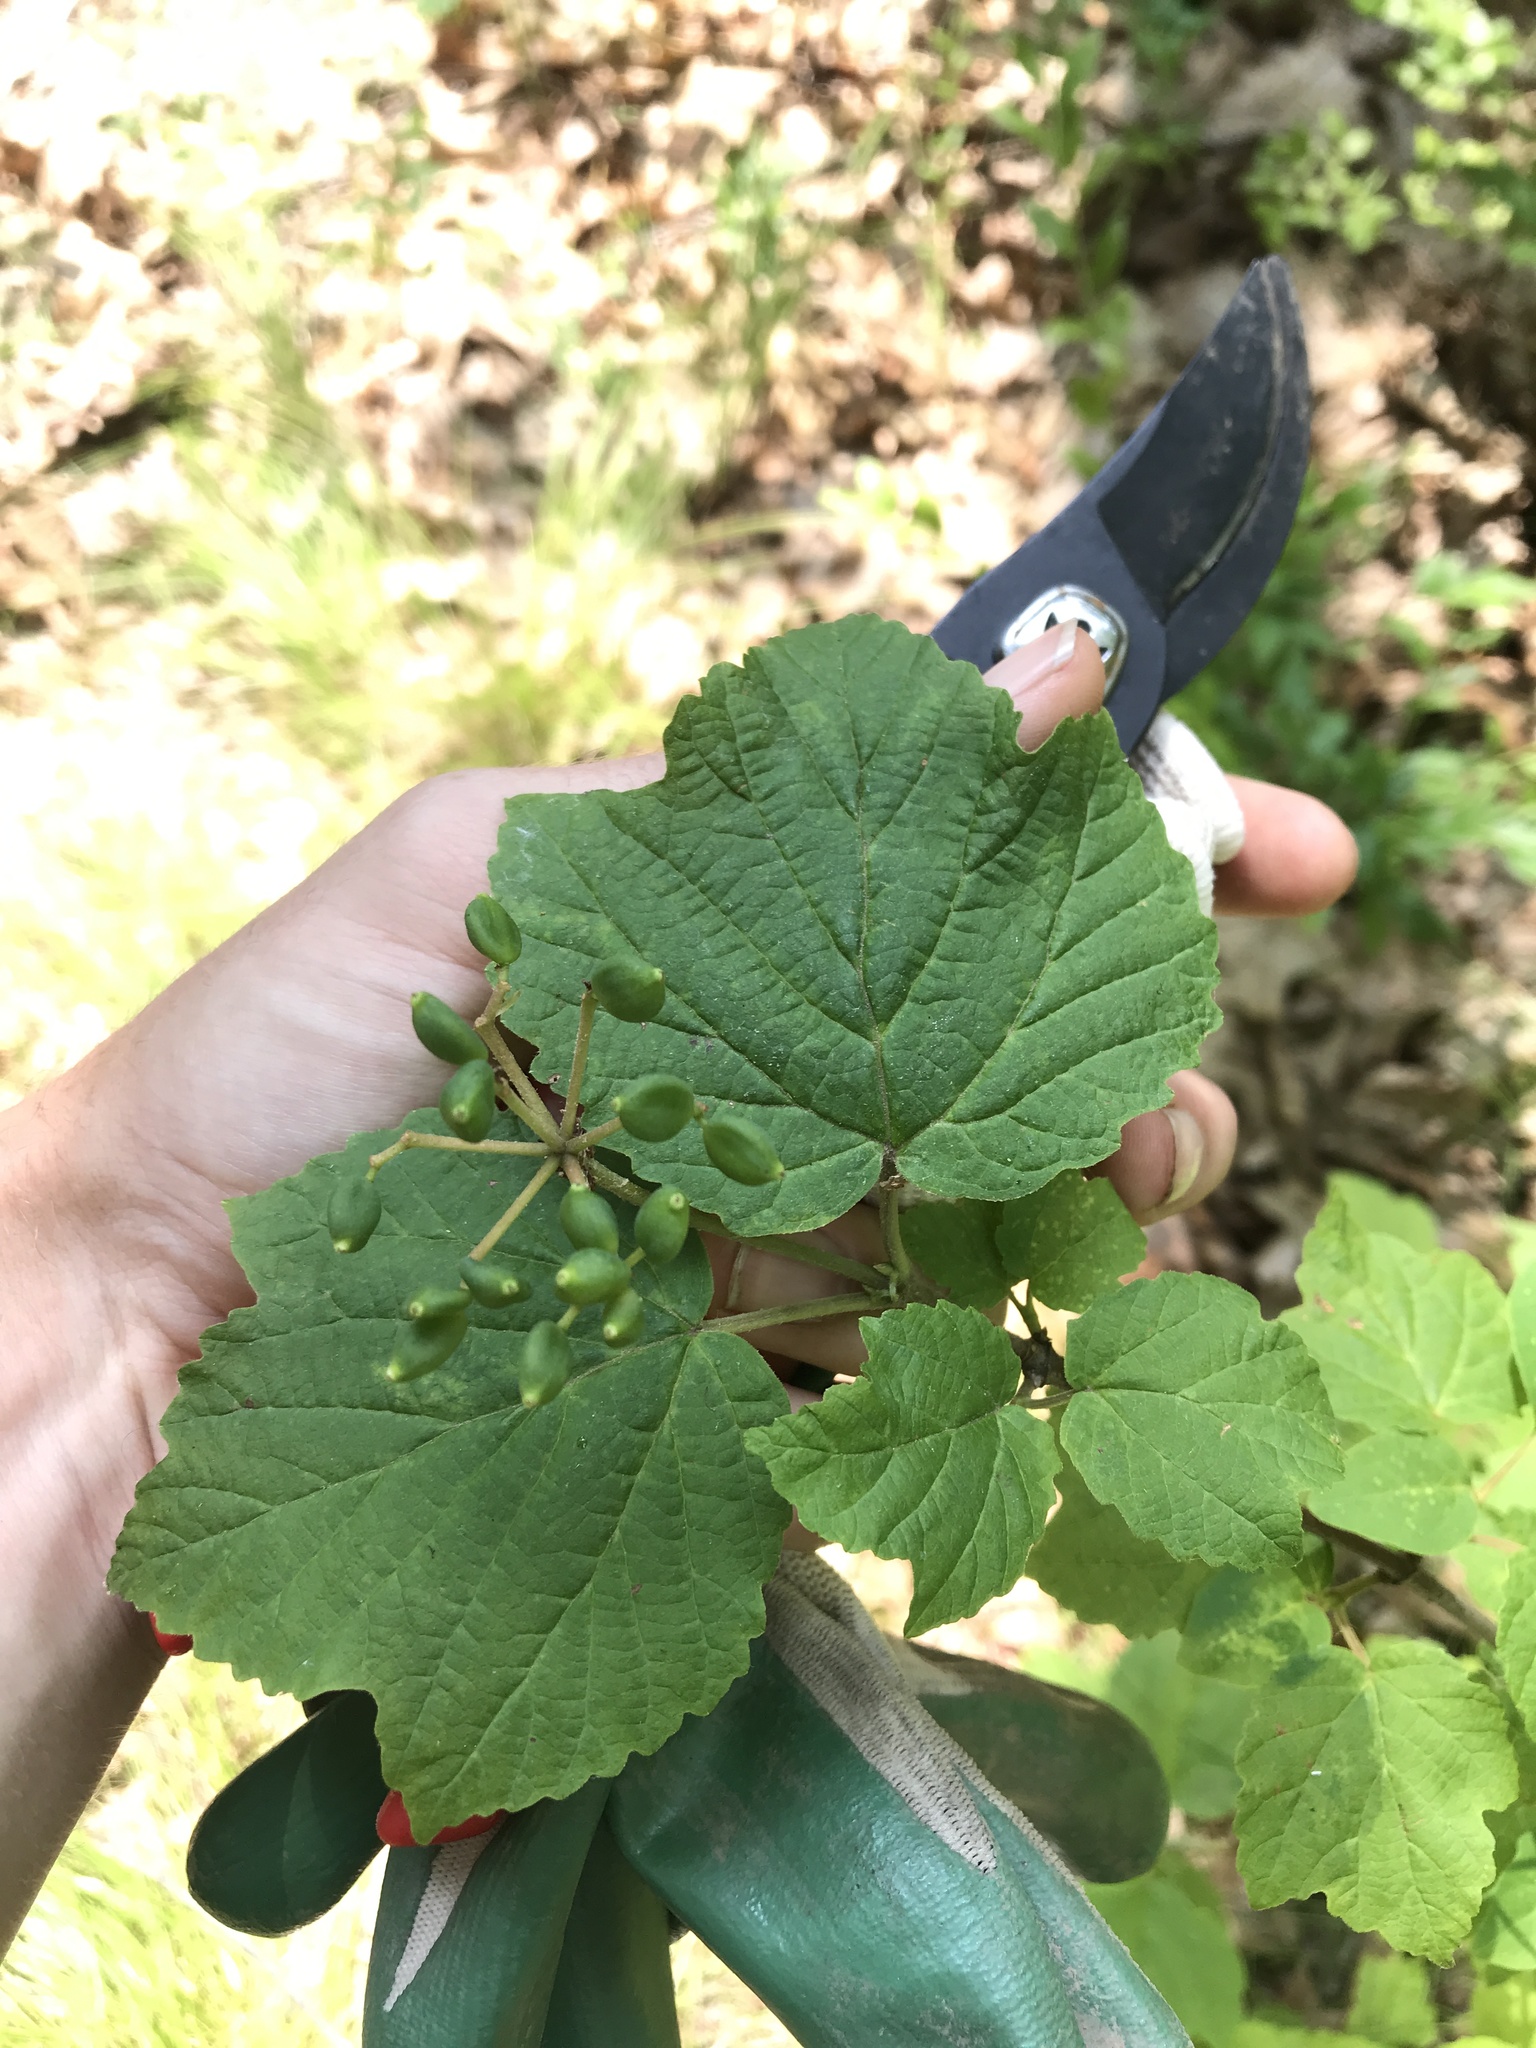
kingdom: Plantae
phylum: Tracheophyta
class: Magnoliopsida
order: Dipsacales
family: Viburnaceae
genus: Viburnum
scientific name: Viburnum acerifolium
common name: Dockmackie
